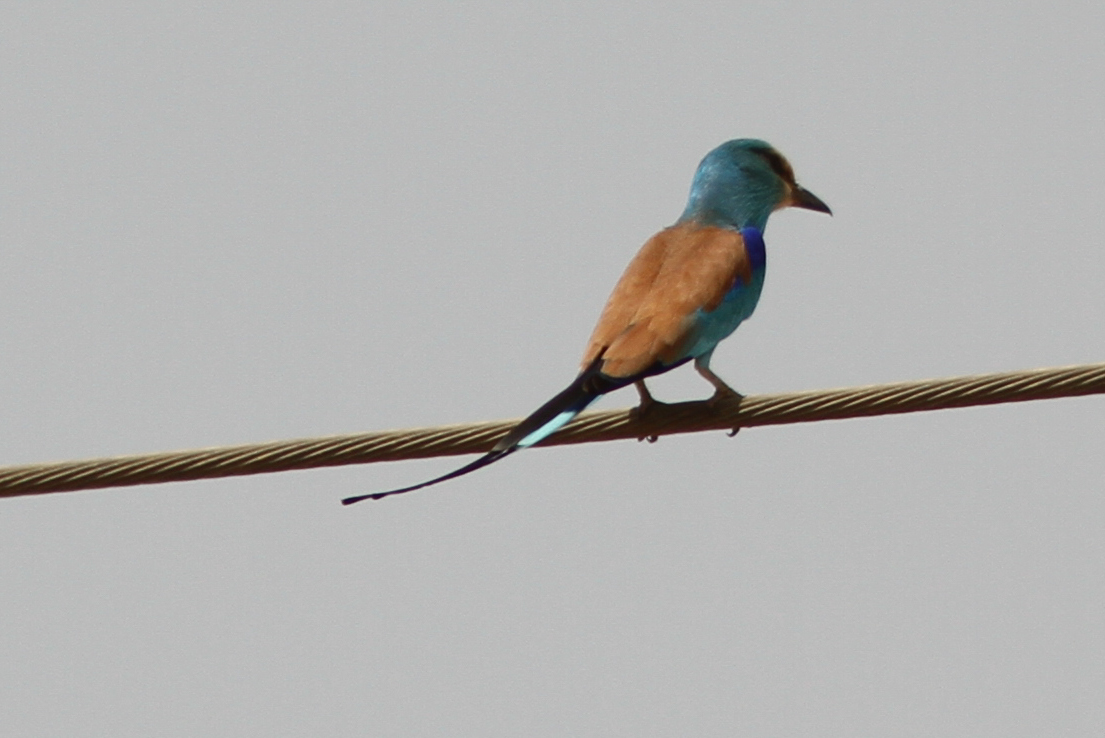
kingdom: Animalia
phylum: Chordata
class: Aves
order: Coraciiformes
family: Coraciidae
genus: Coracias
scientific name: Coracias abyssinicus
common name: Abyssinian roller
